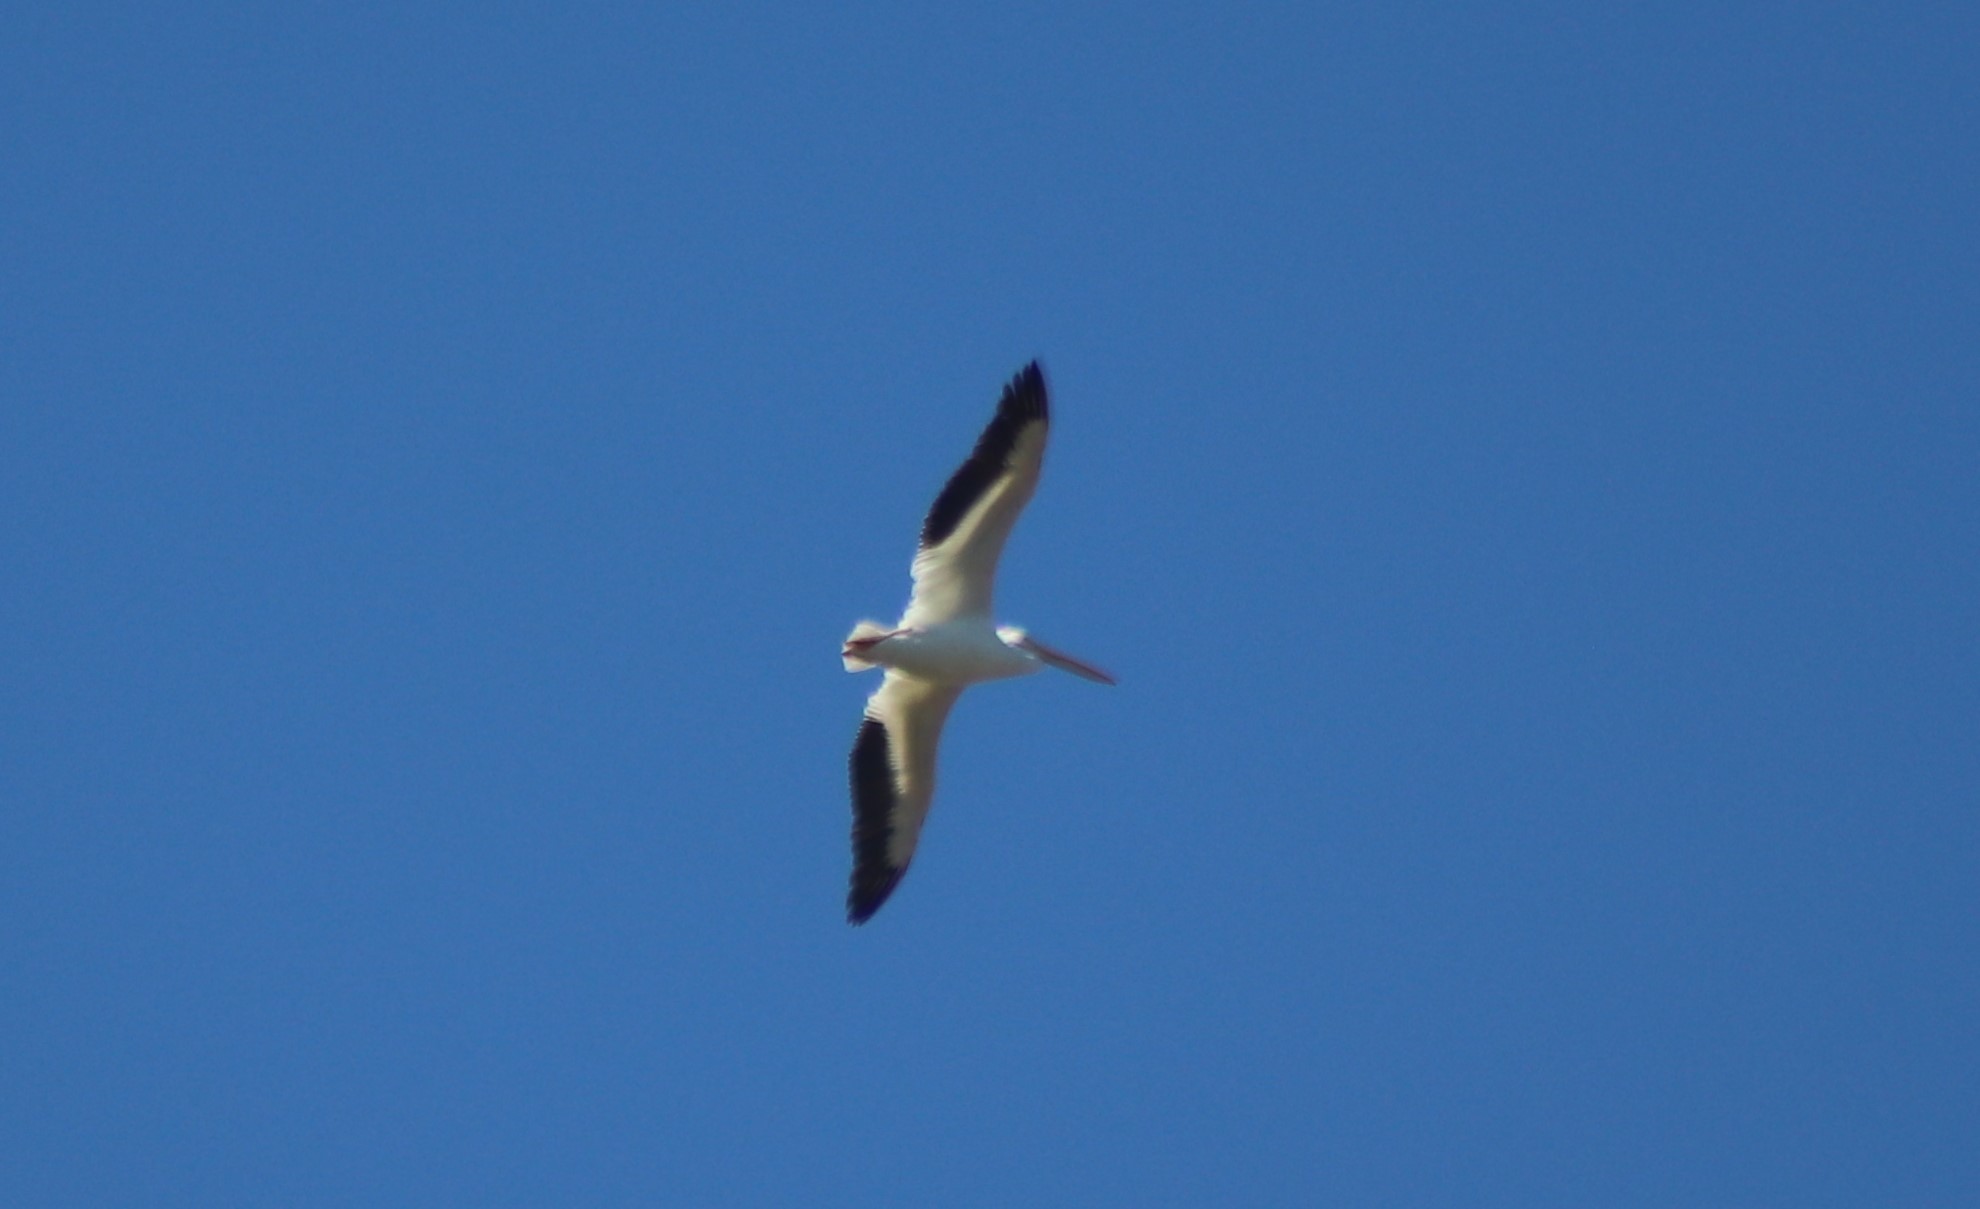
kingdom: Animalia
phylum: Chordata
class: Aves
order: Pelecaniformes
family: Pelecanidae
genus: Pelecanus
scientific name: Pelecanus erythrorhynchos
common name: American white pelican
